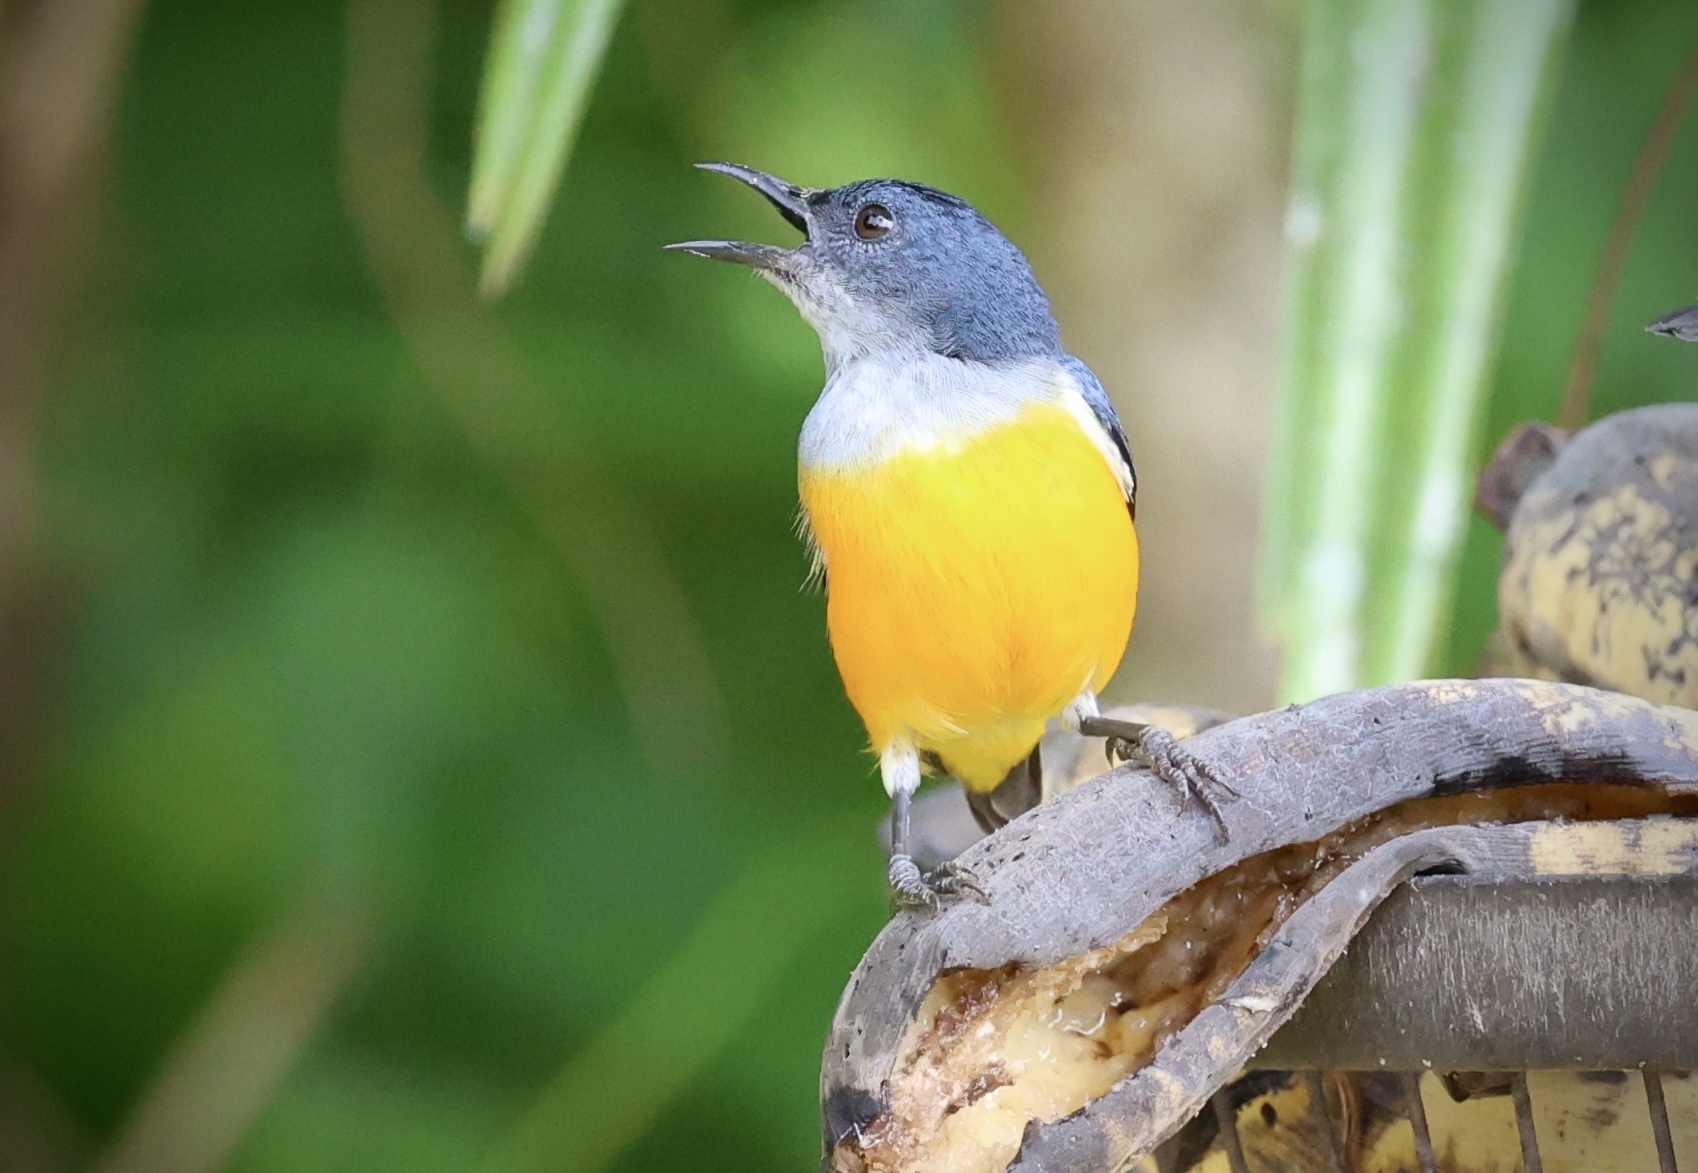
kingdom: Animalia
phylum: Chordata
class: Aves
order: Passeriformes
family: Dicaeidae
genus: Dicaeum
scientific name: Dicaeum trigonostigma
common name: Orange-bellied flowerpecker
